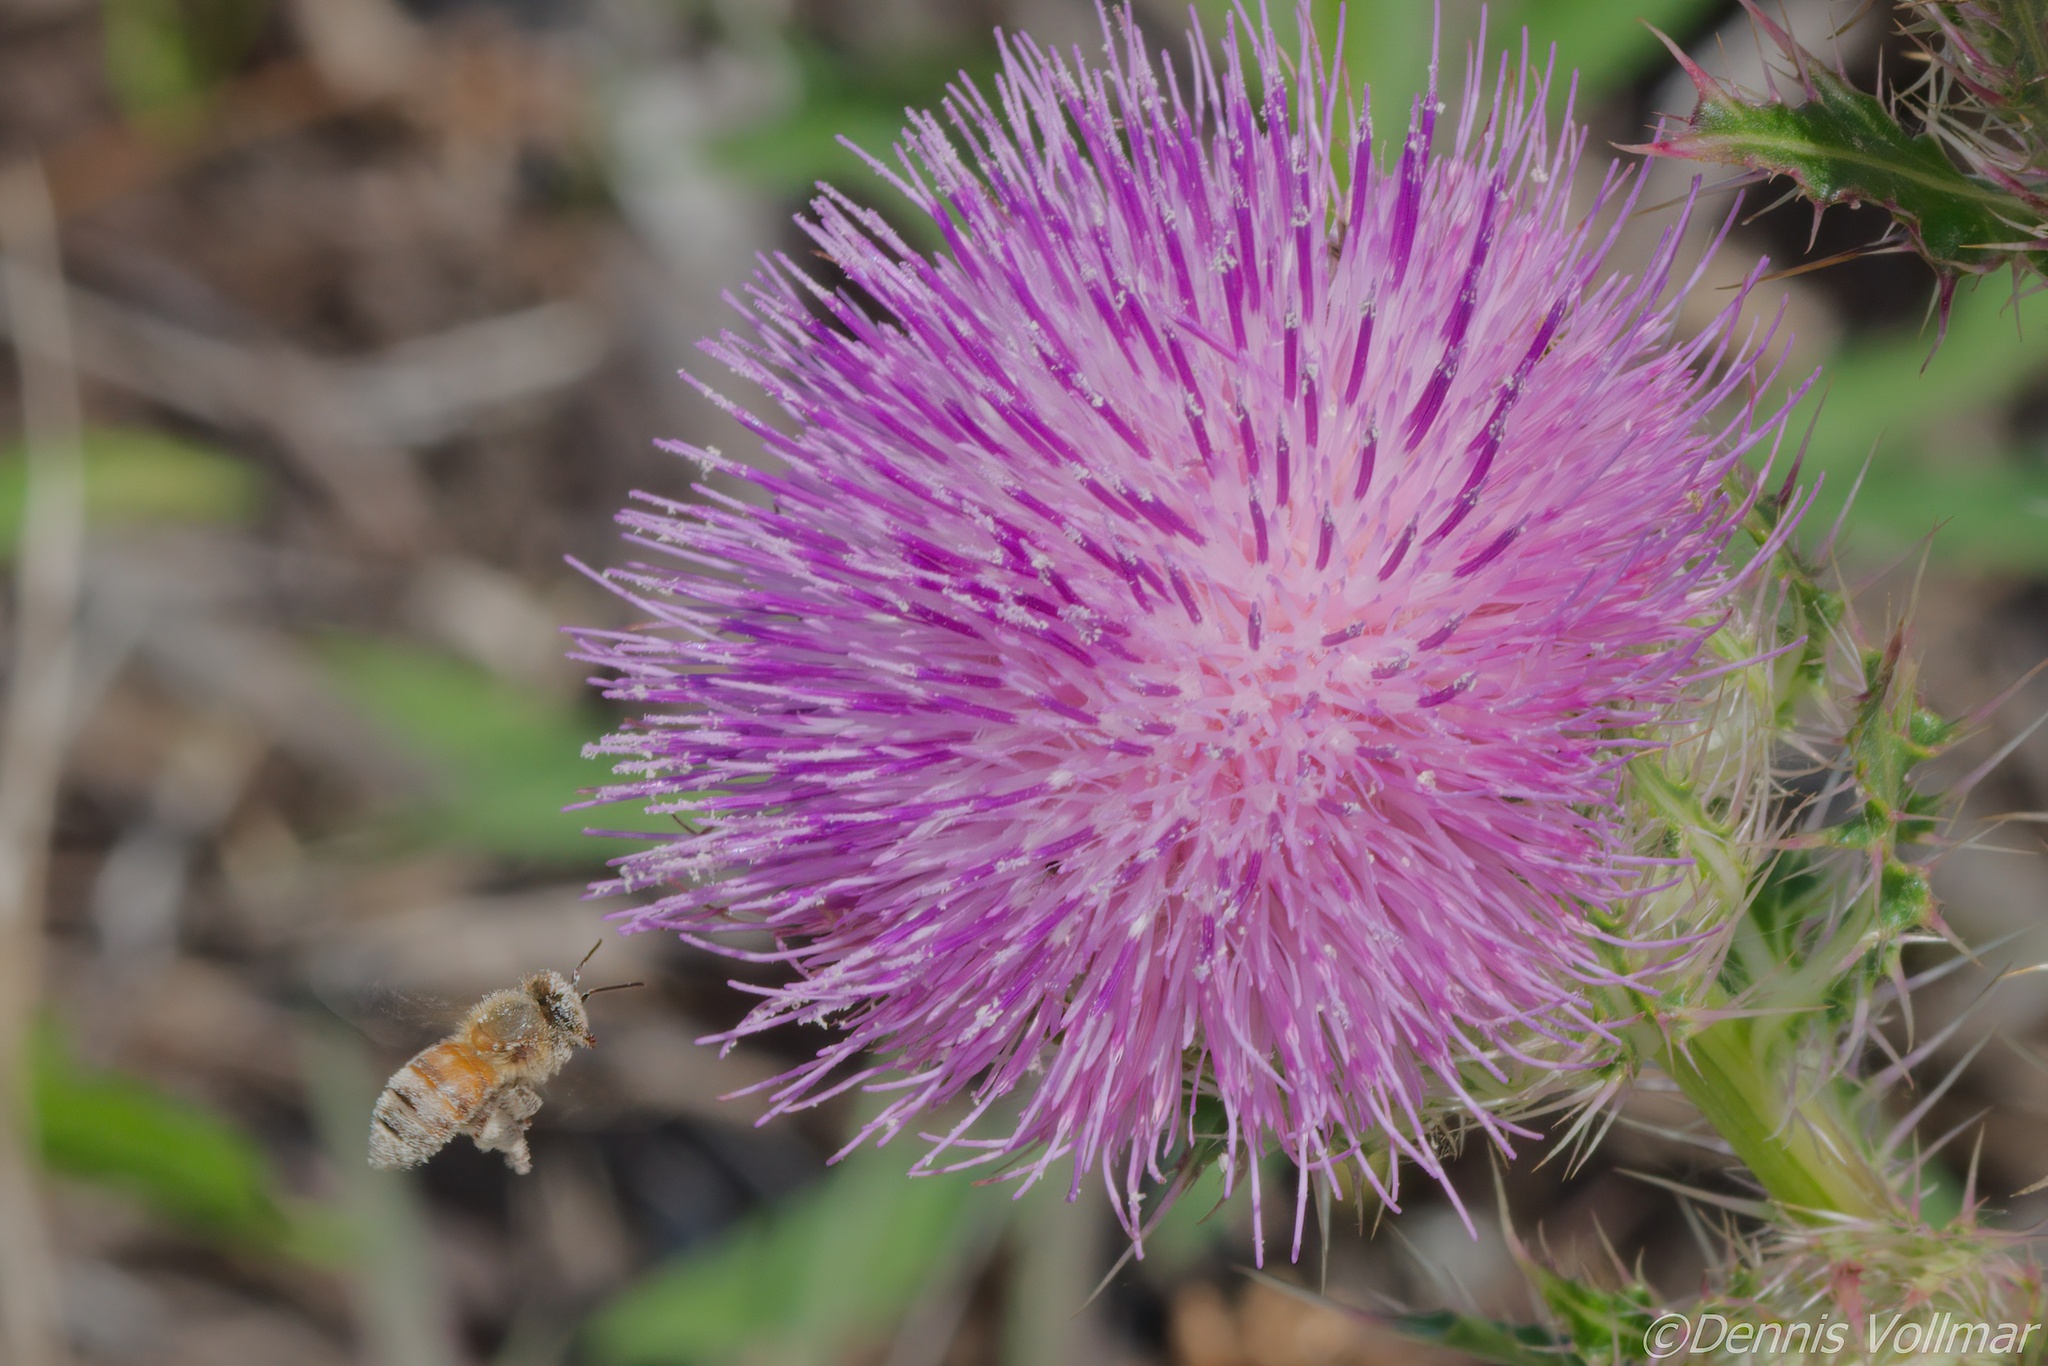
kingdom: Animalia
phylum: Arthropoda
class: Insecta
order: Hymenoptera
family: Apidae
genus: Apis
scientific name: Apis mellifera
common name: Honey bee
